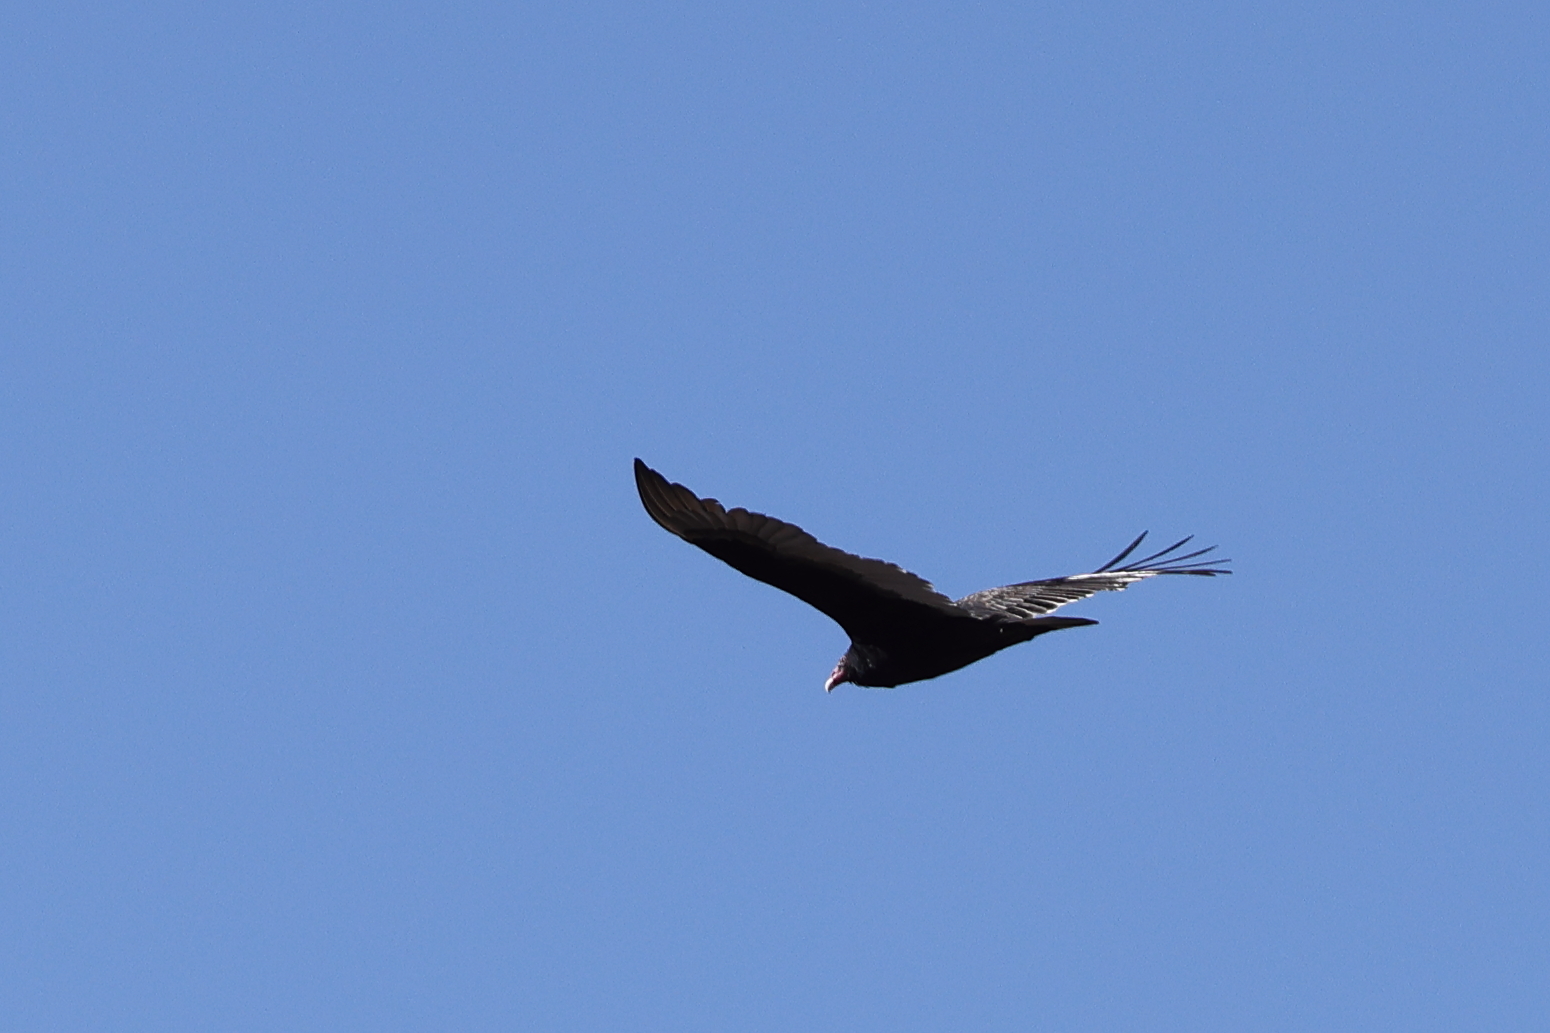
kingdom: Animalia
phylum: Chordata
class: Aves
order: Accipitriformes
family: Cathartidae
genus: Cathartes
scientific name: Cathartes aura
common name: Turkey vulture
